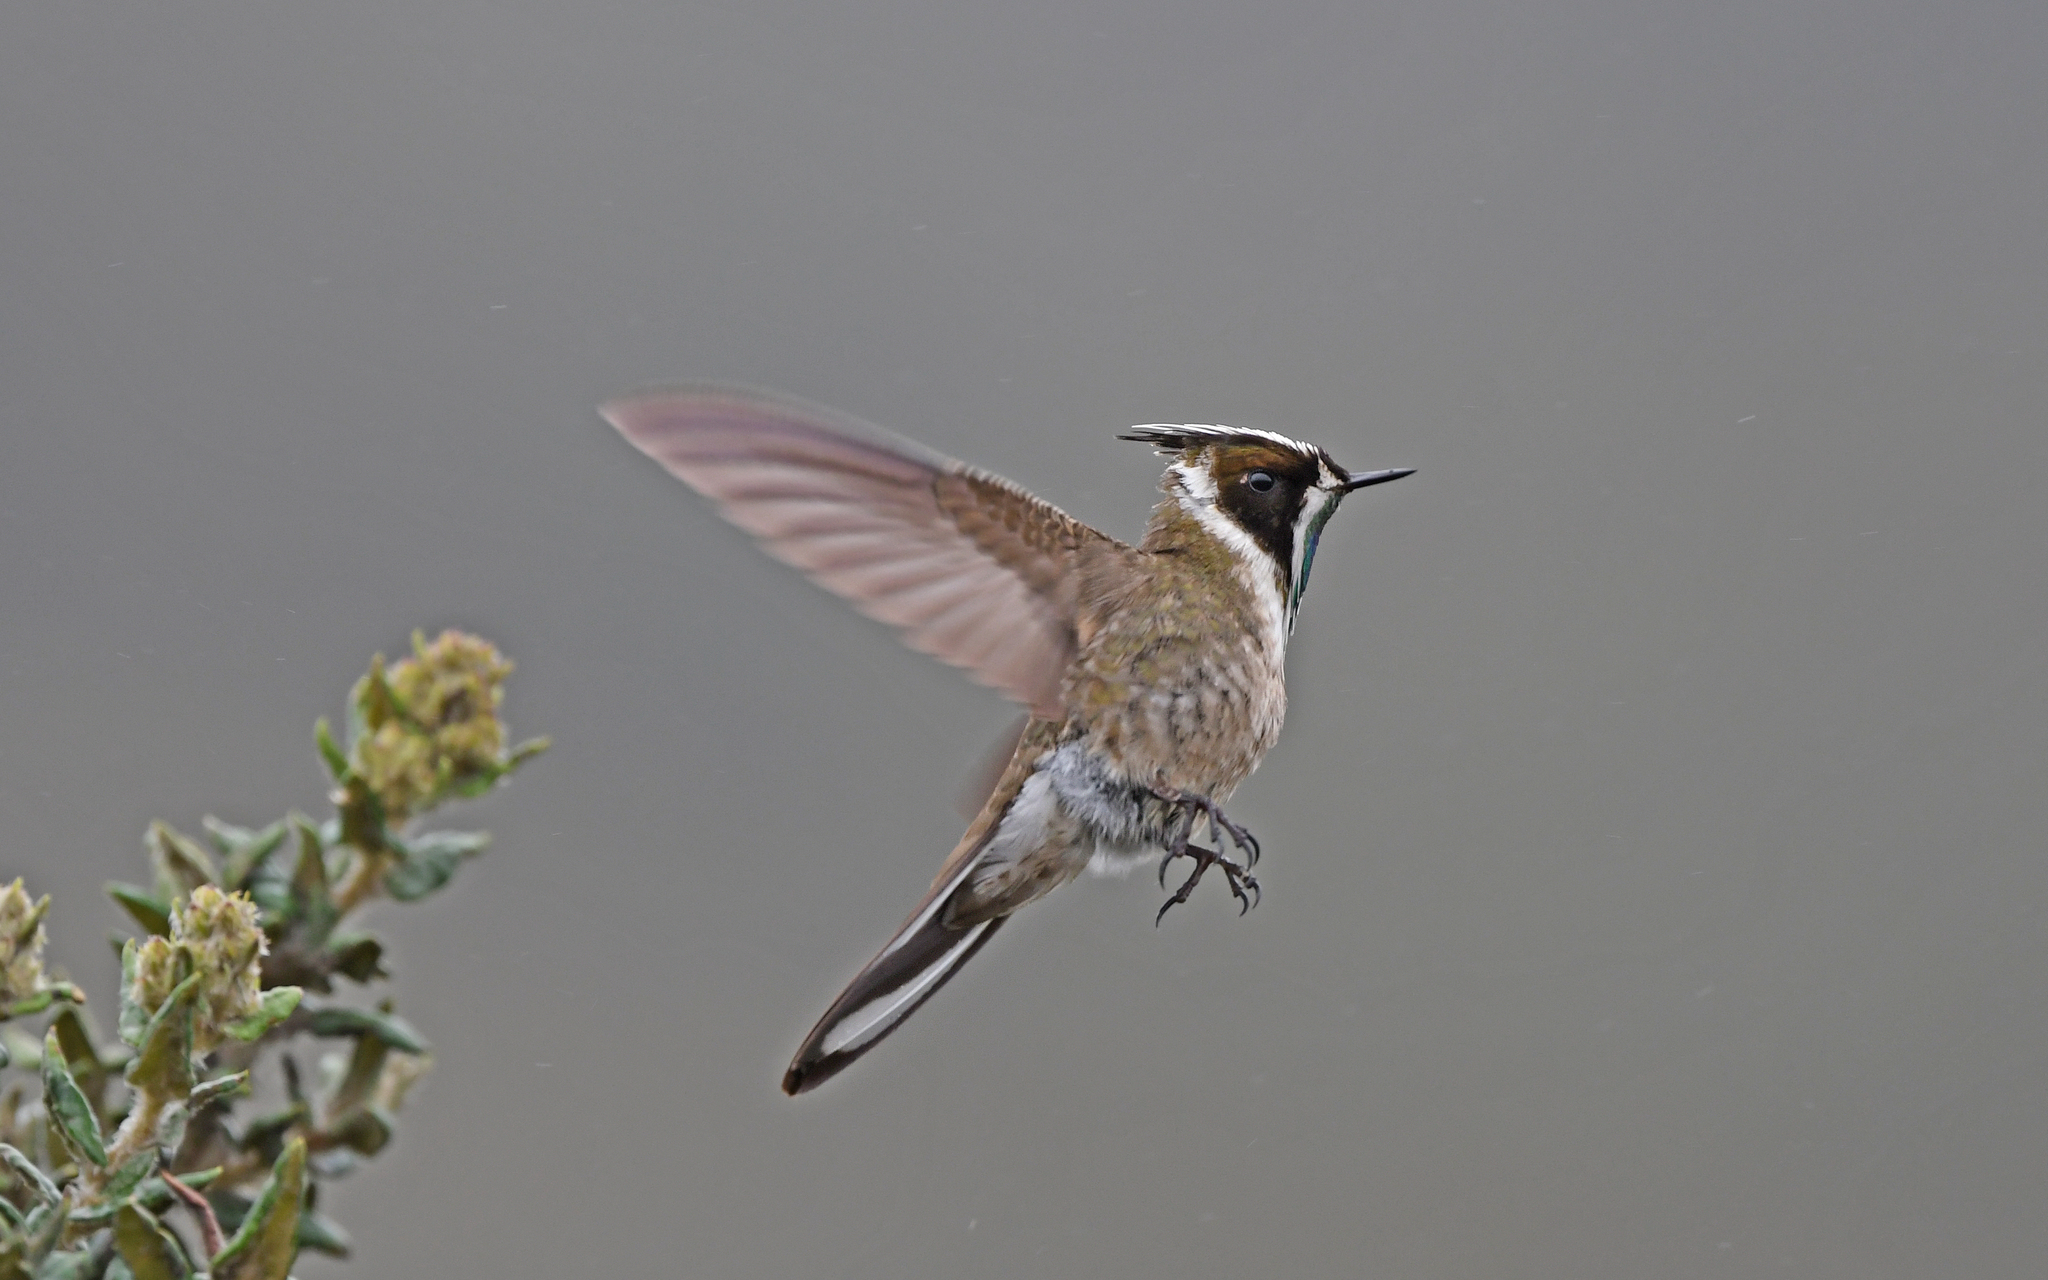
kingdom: Animalia
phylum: Chordata
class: Aves
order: Apodiformes
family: Trochilidae
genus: Oxypogon
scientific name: Oxypogon guerinii
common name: Bearded helmetcrest
